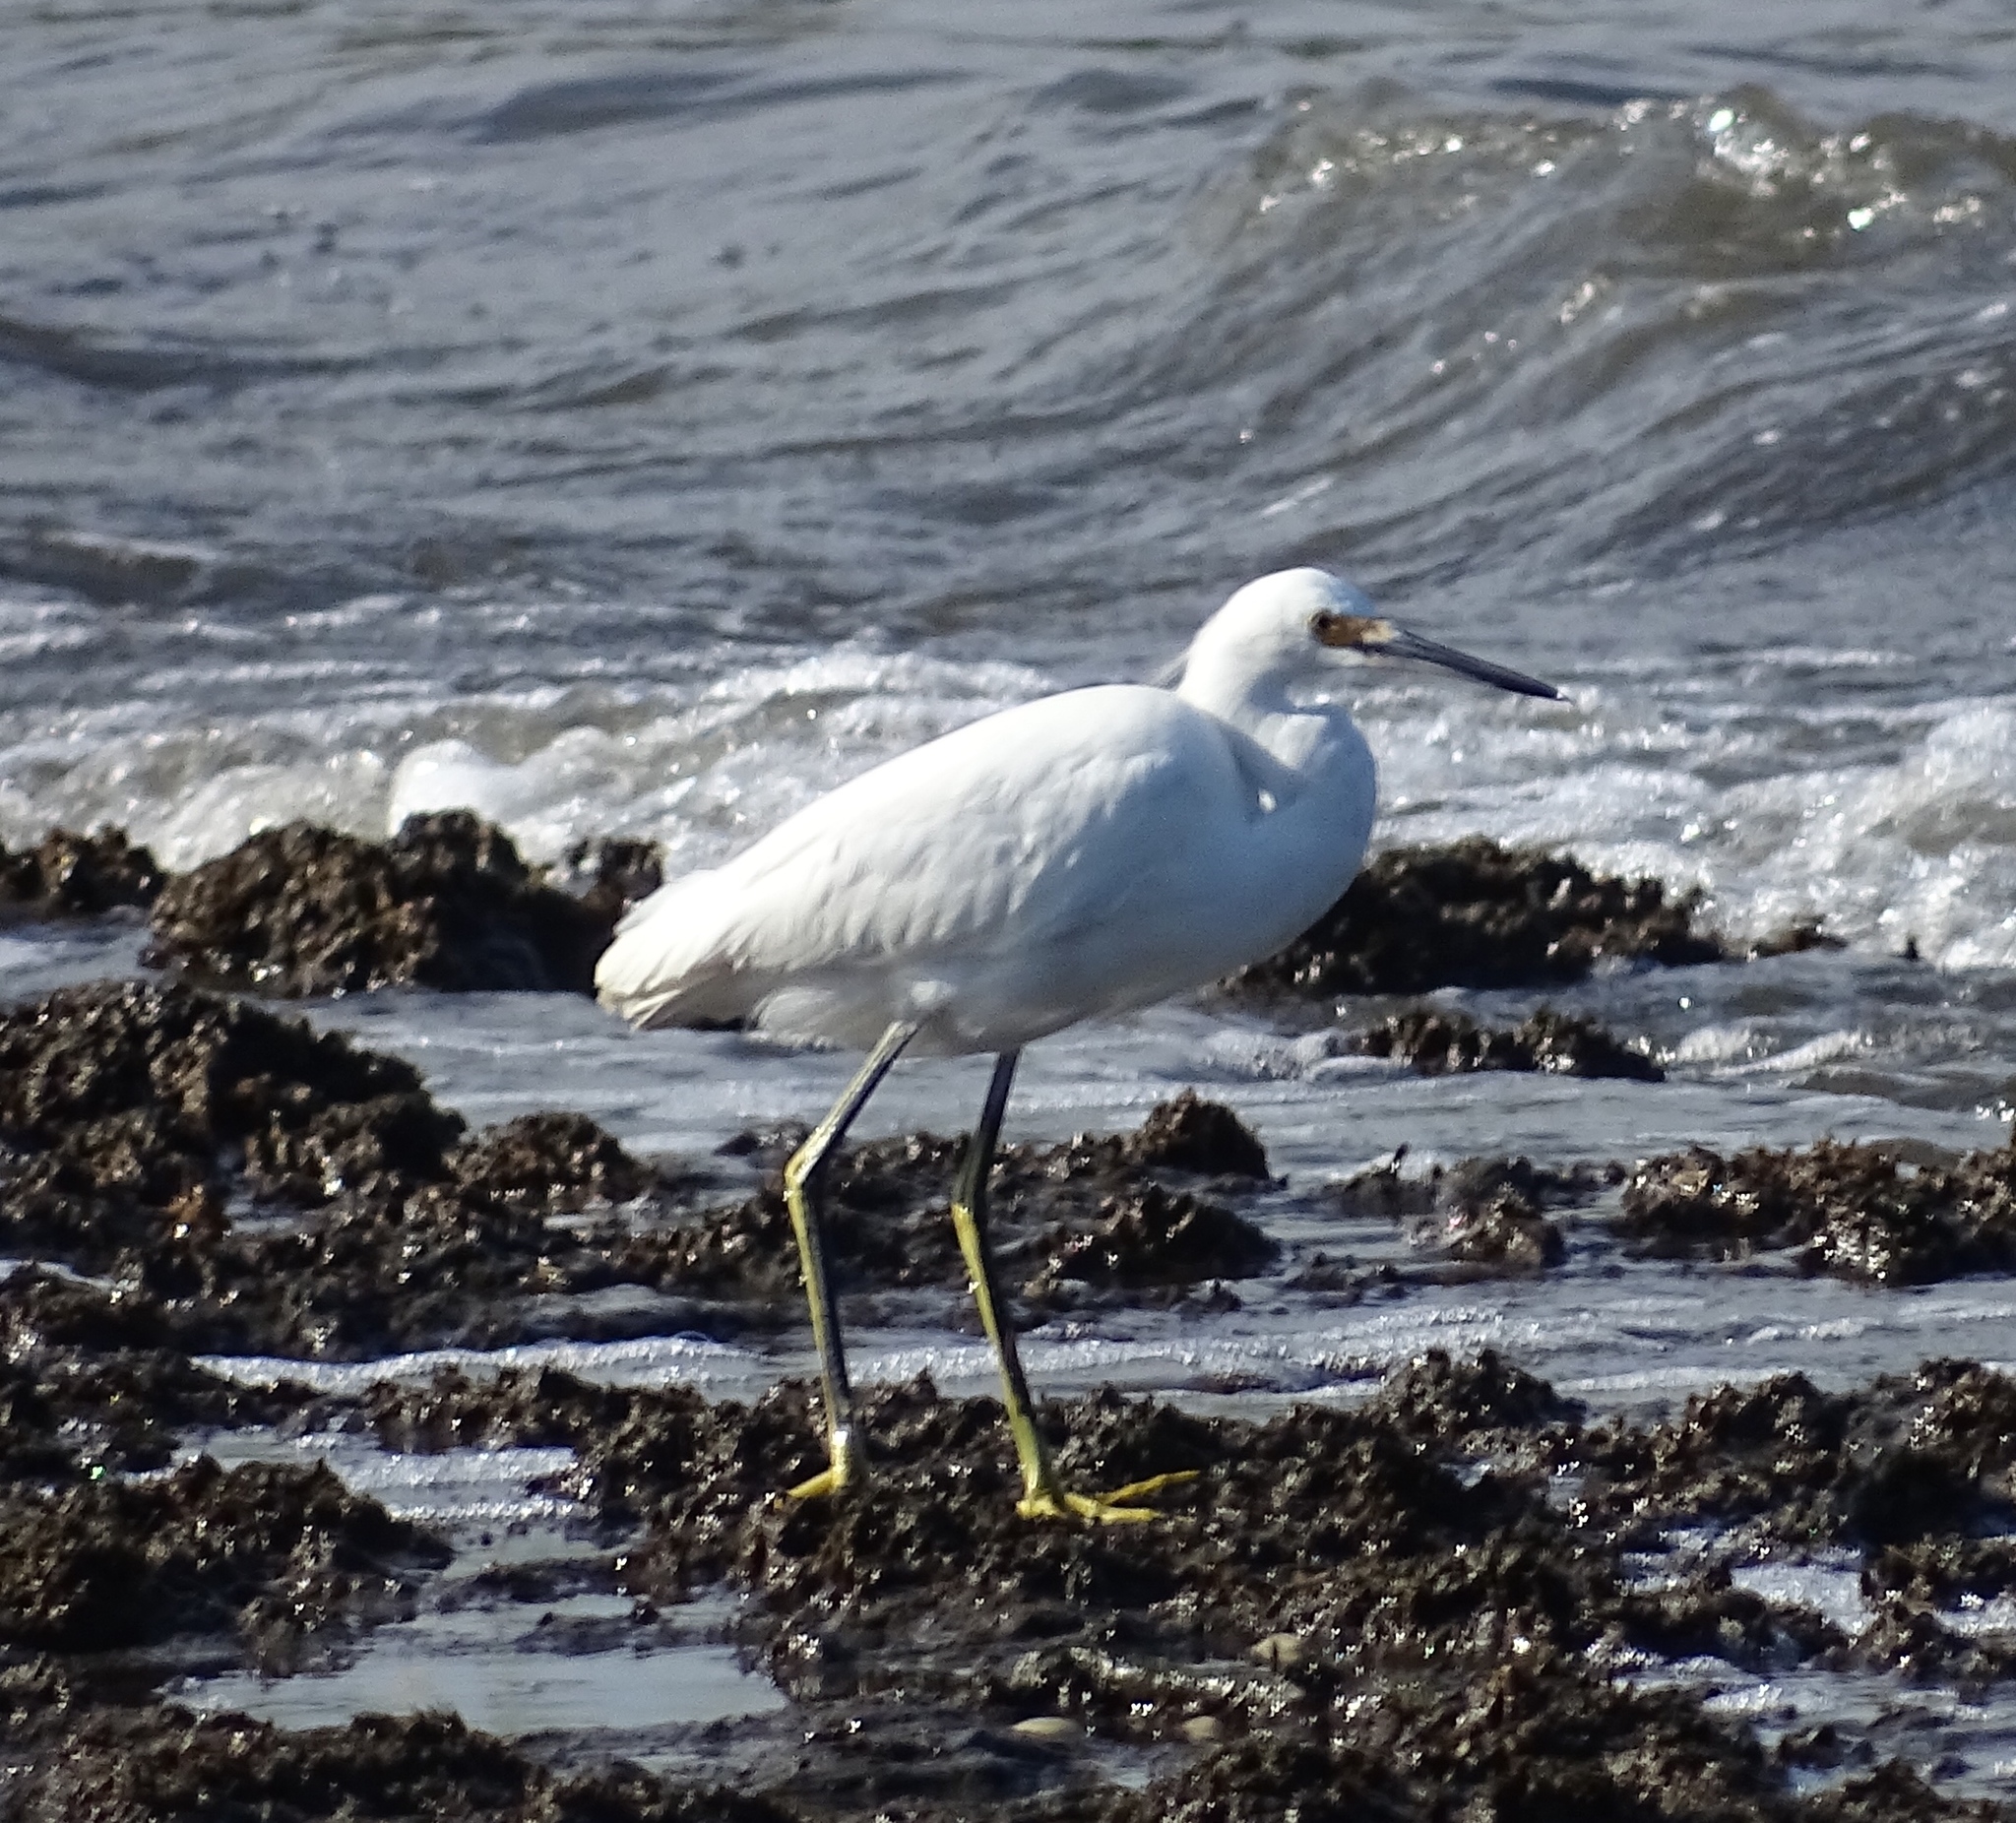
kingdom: Animalia
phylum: Chordata
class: Aves
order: Pelecaniformes
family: Ardeidae
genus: Egretta
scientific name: Egretta thula
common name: Snowy egret
